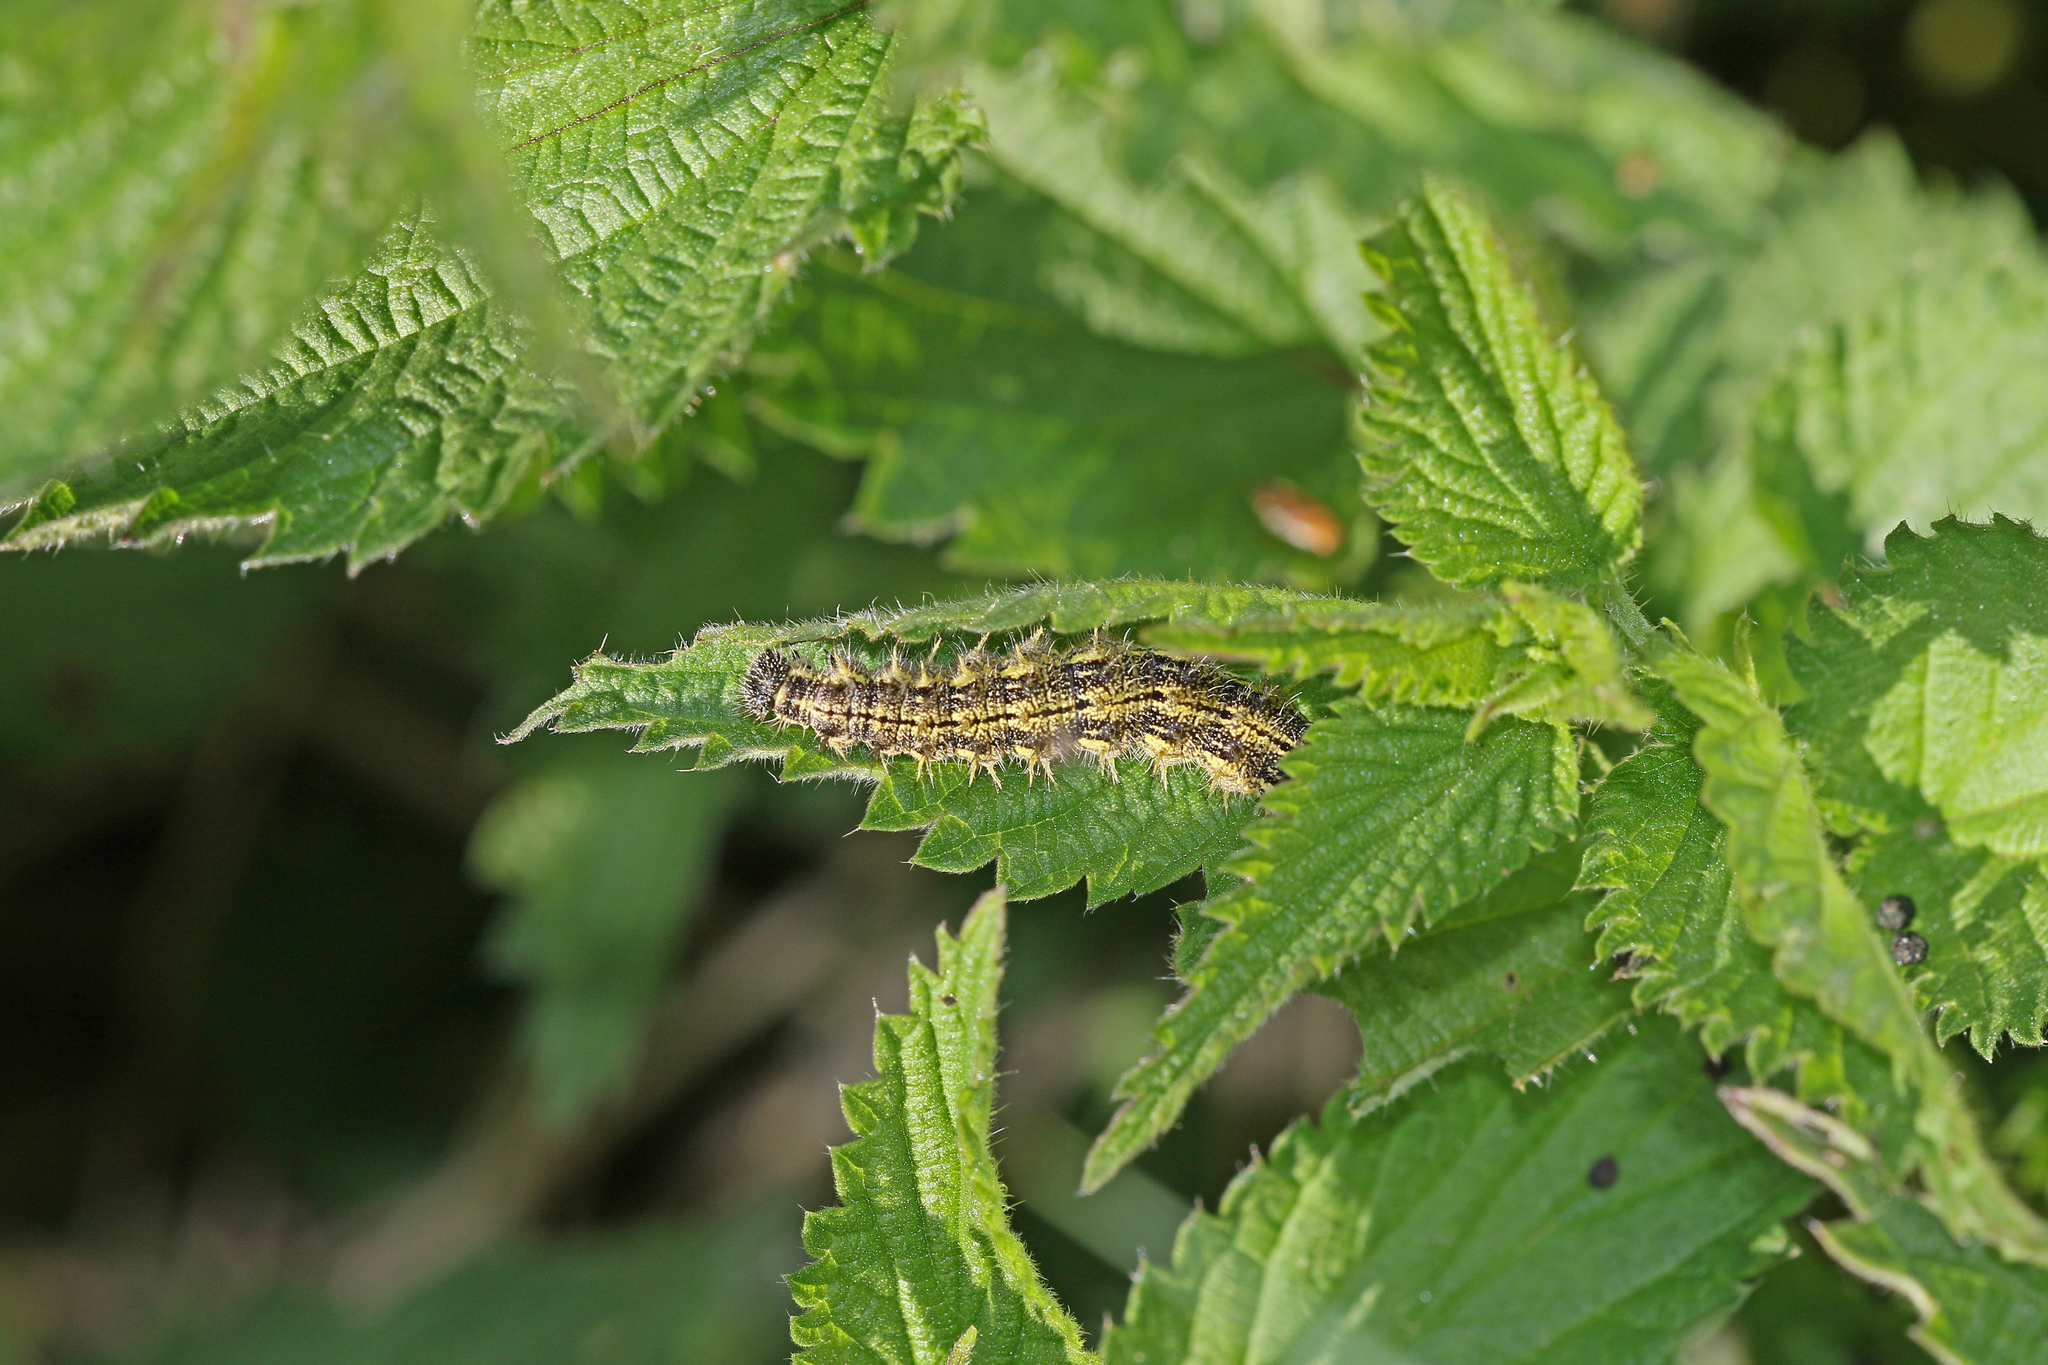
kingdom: Animalia
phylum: Arthropoda
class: Insecta
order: Lepidoptera
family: Nymphalidae
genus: Aglais
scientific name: Aglais urticae
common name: Small tortoiseshell
